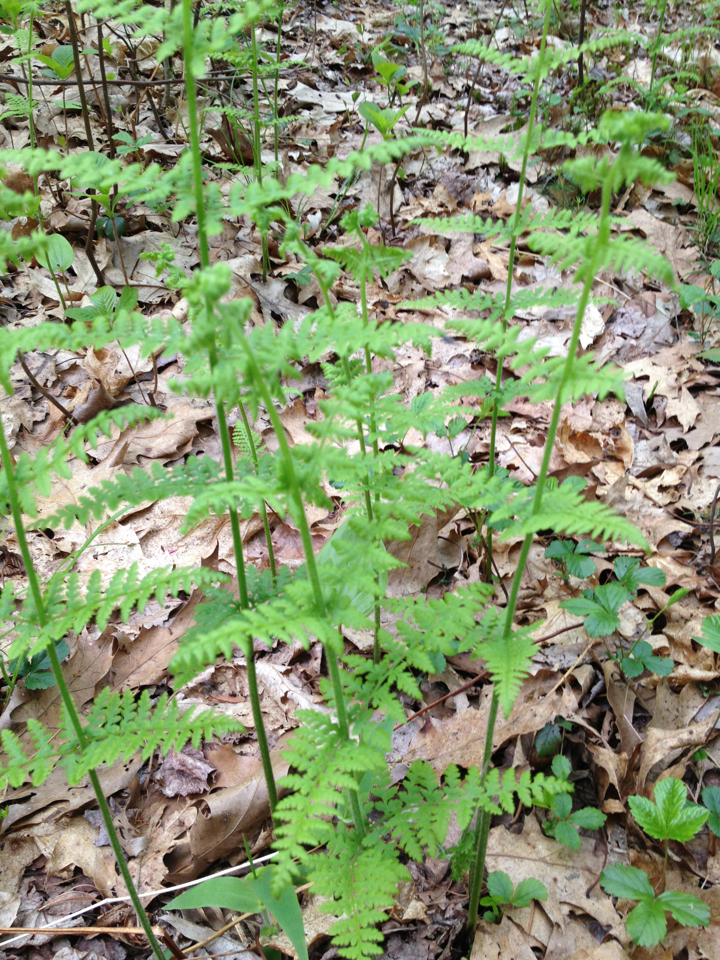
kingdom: Plantae
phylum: Tracheophyta
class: Polypodiopsida
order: Polypodiales
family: Dennstaedtiaceae
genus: Sitobolium
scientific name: Sitobolium punctilobum
